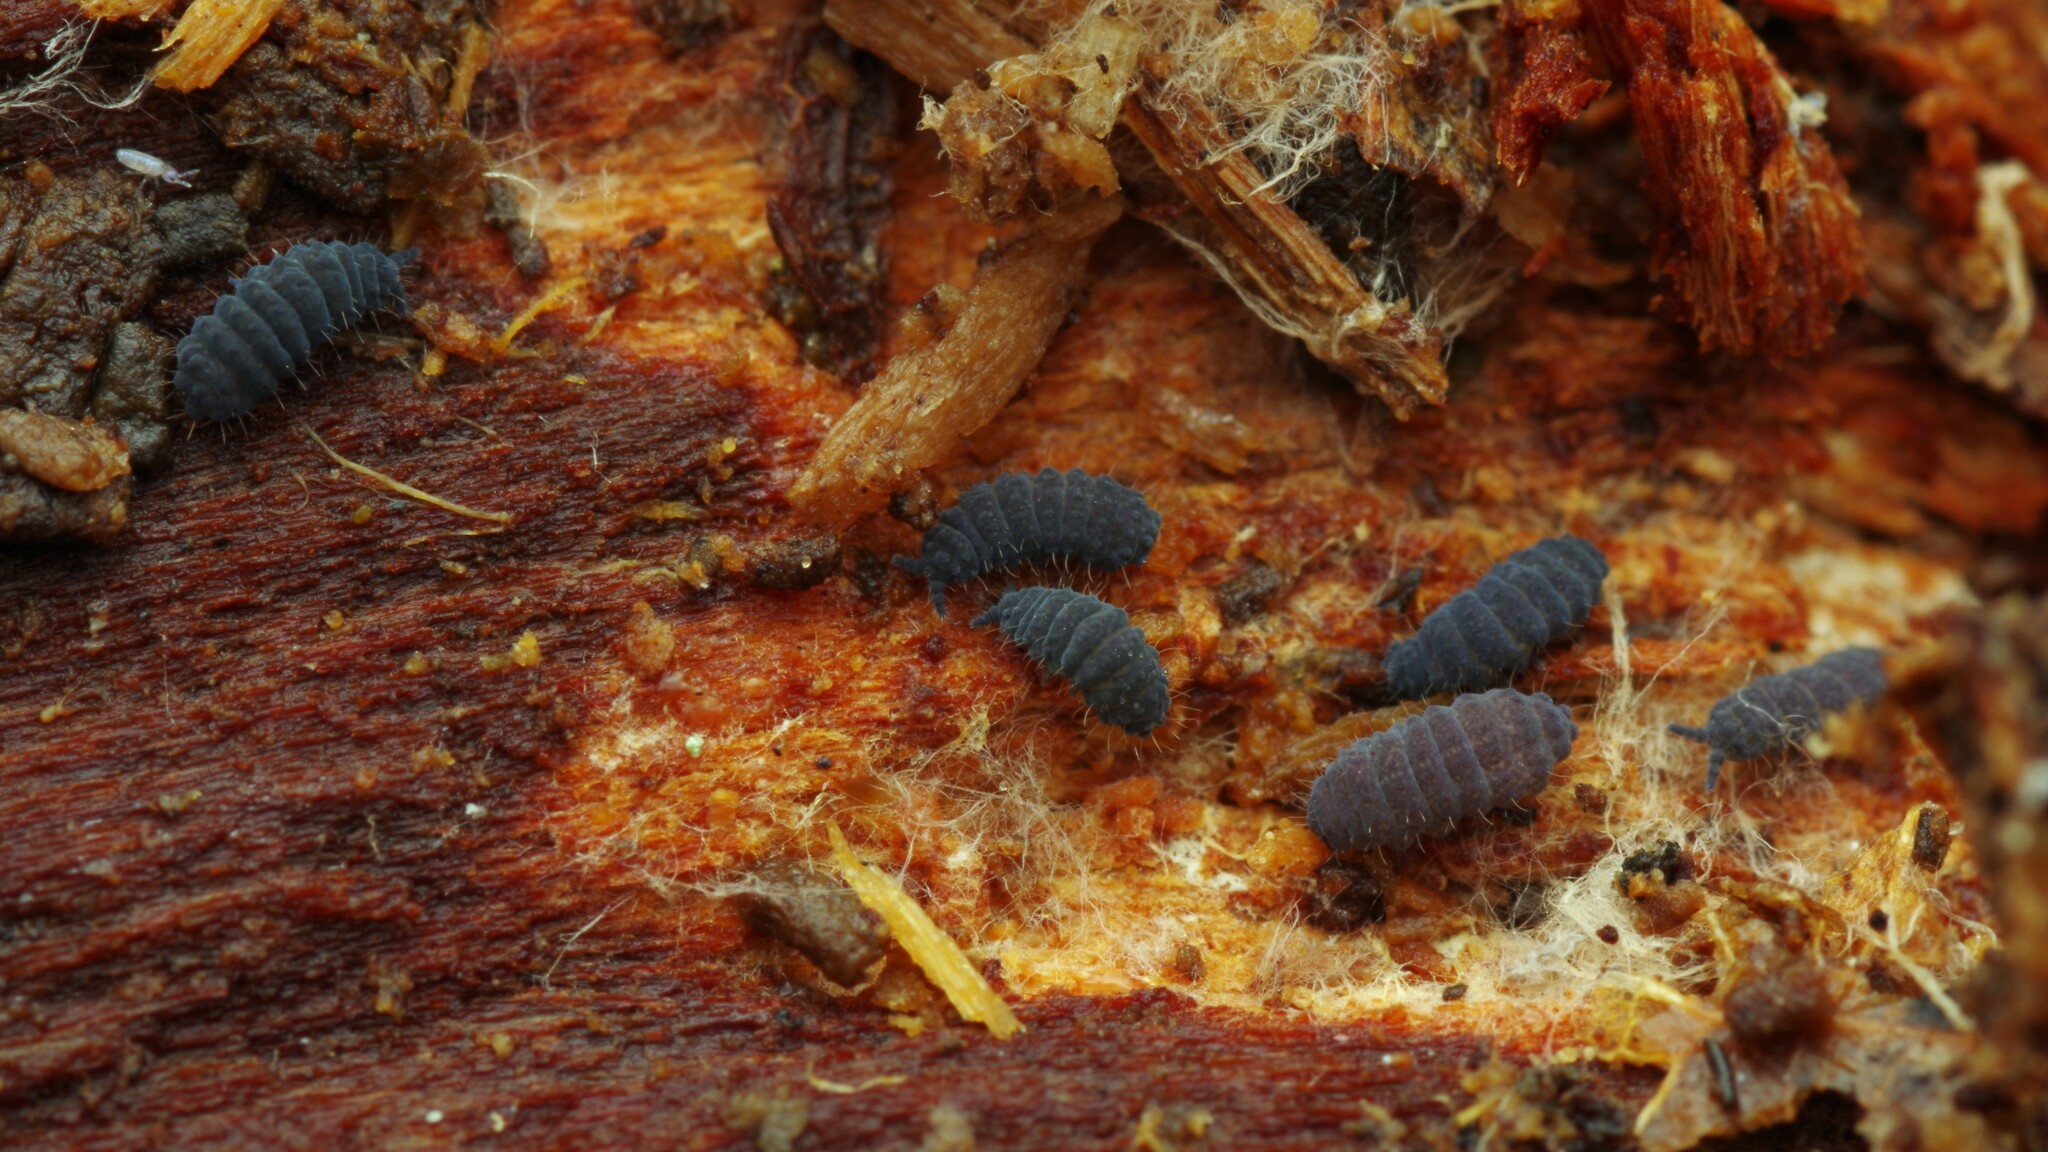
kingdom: Animalia
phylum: Arthropoda
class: Collembola
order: Poduromorpha
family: Neanuridae
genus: Neanura
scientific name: Neanura muscorum
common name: Springtail
